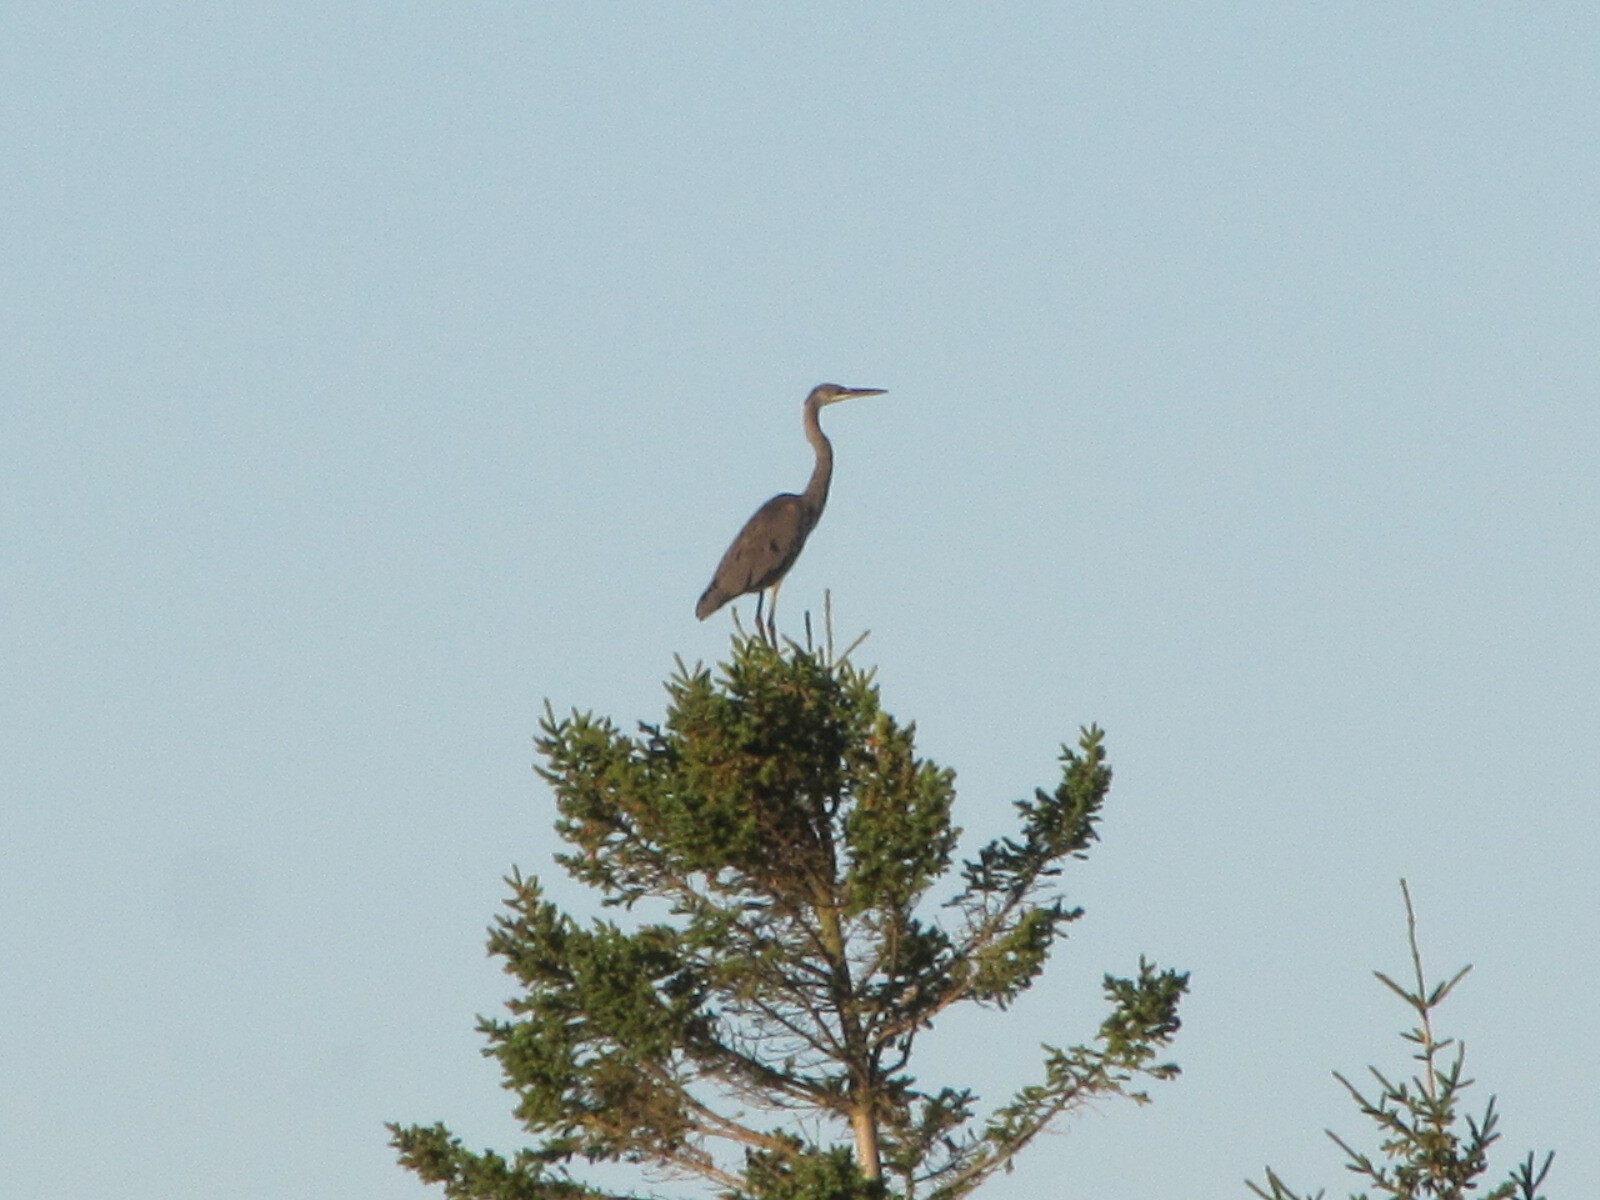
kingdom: Animalia
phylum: Chordata
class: Aves
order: Pelecaniformes
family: Ardeidae
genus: Ardea
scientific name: Ardea herodias
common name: Great blue heron
